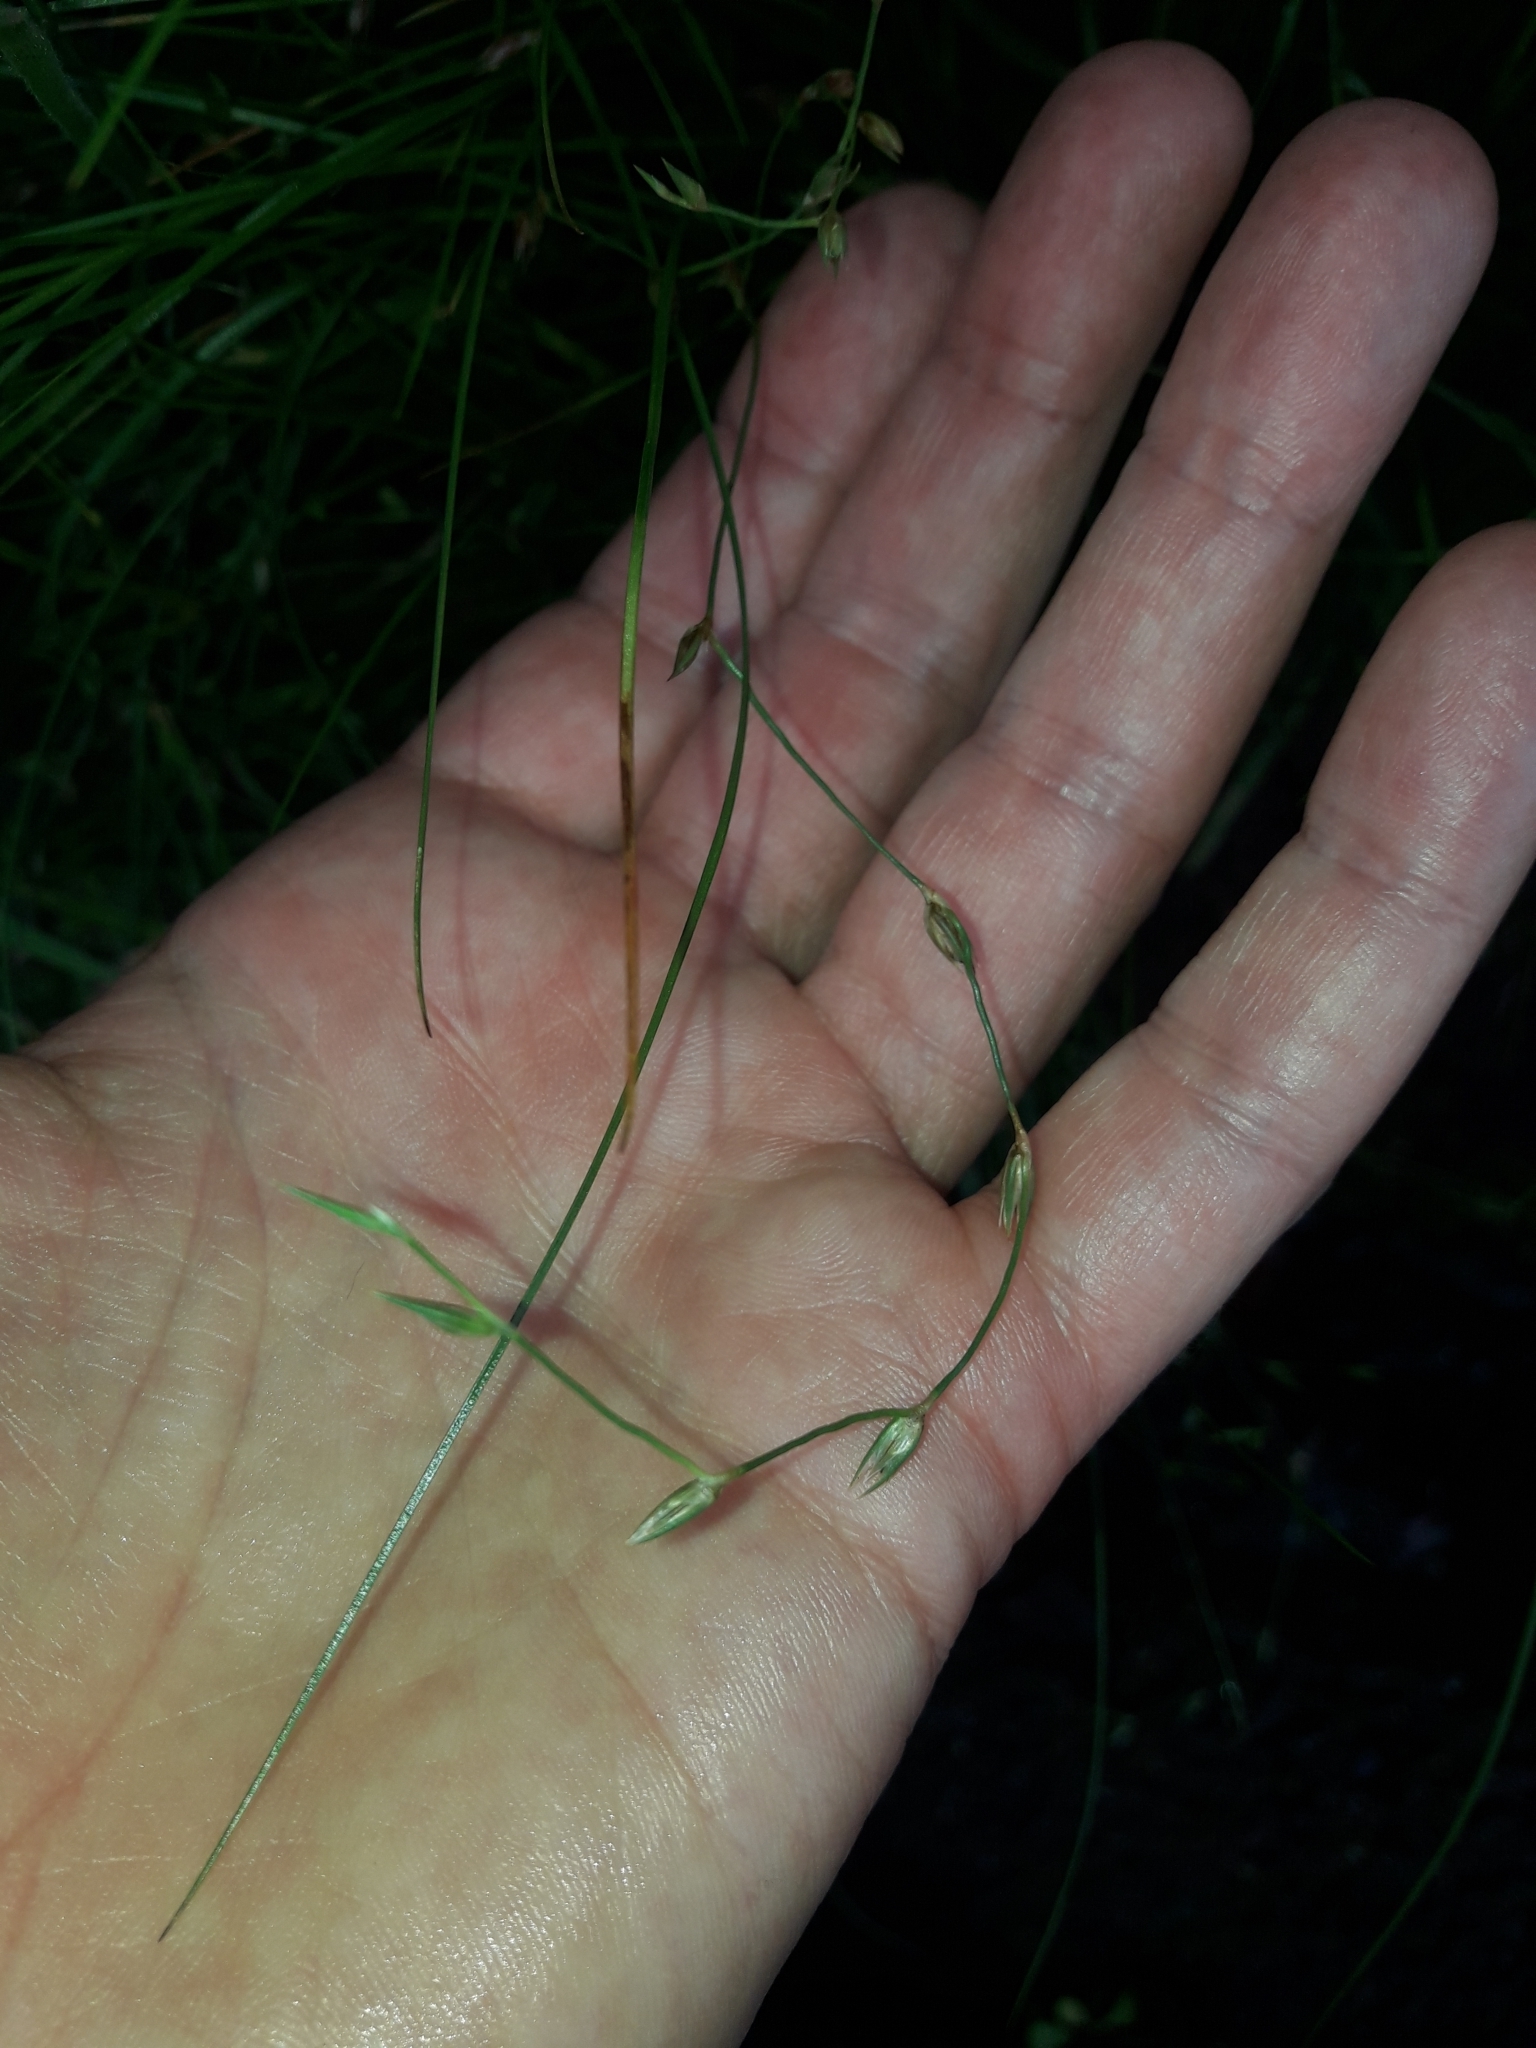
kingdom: Plantae
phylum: Tracheophyta
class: Liliopsida
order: Poales
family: Juncaceae
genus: Juncus
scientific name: Juncus bufonius
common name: Toad rush
